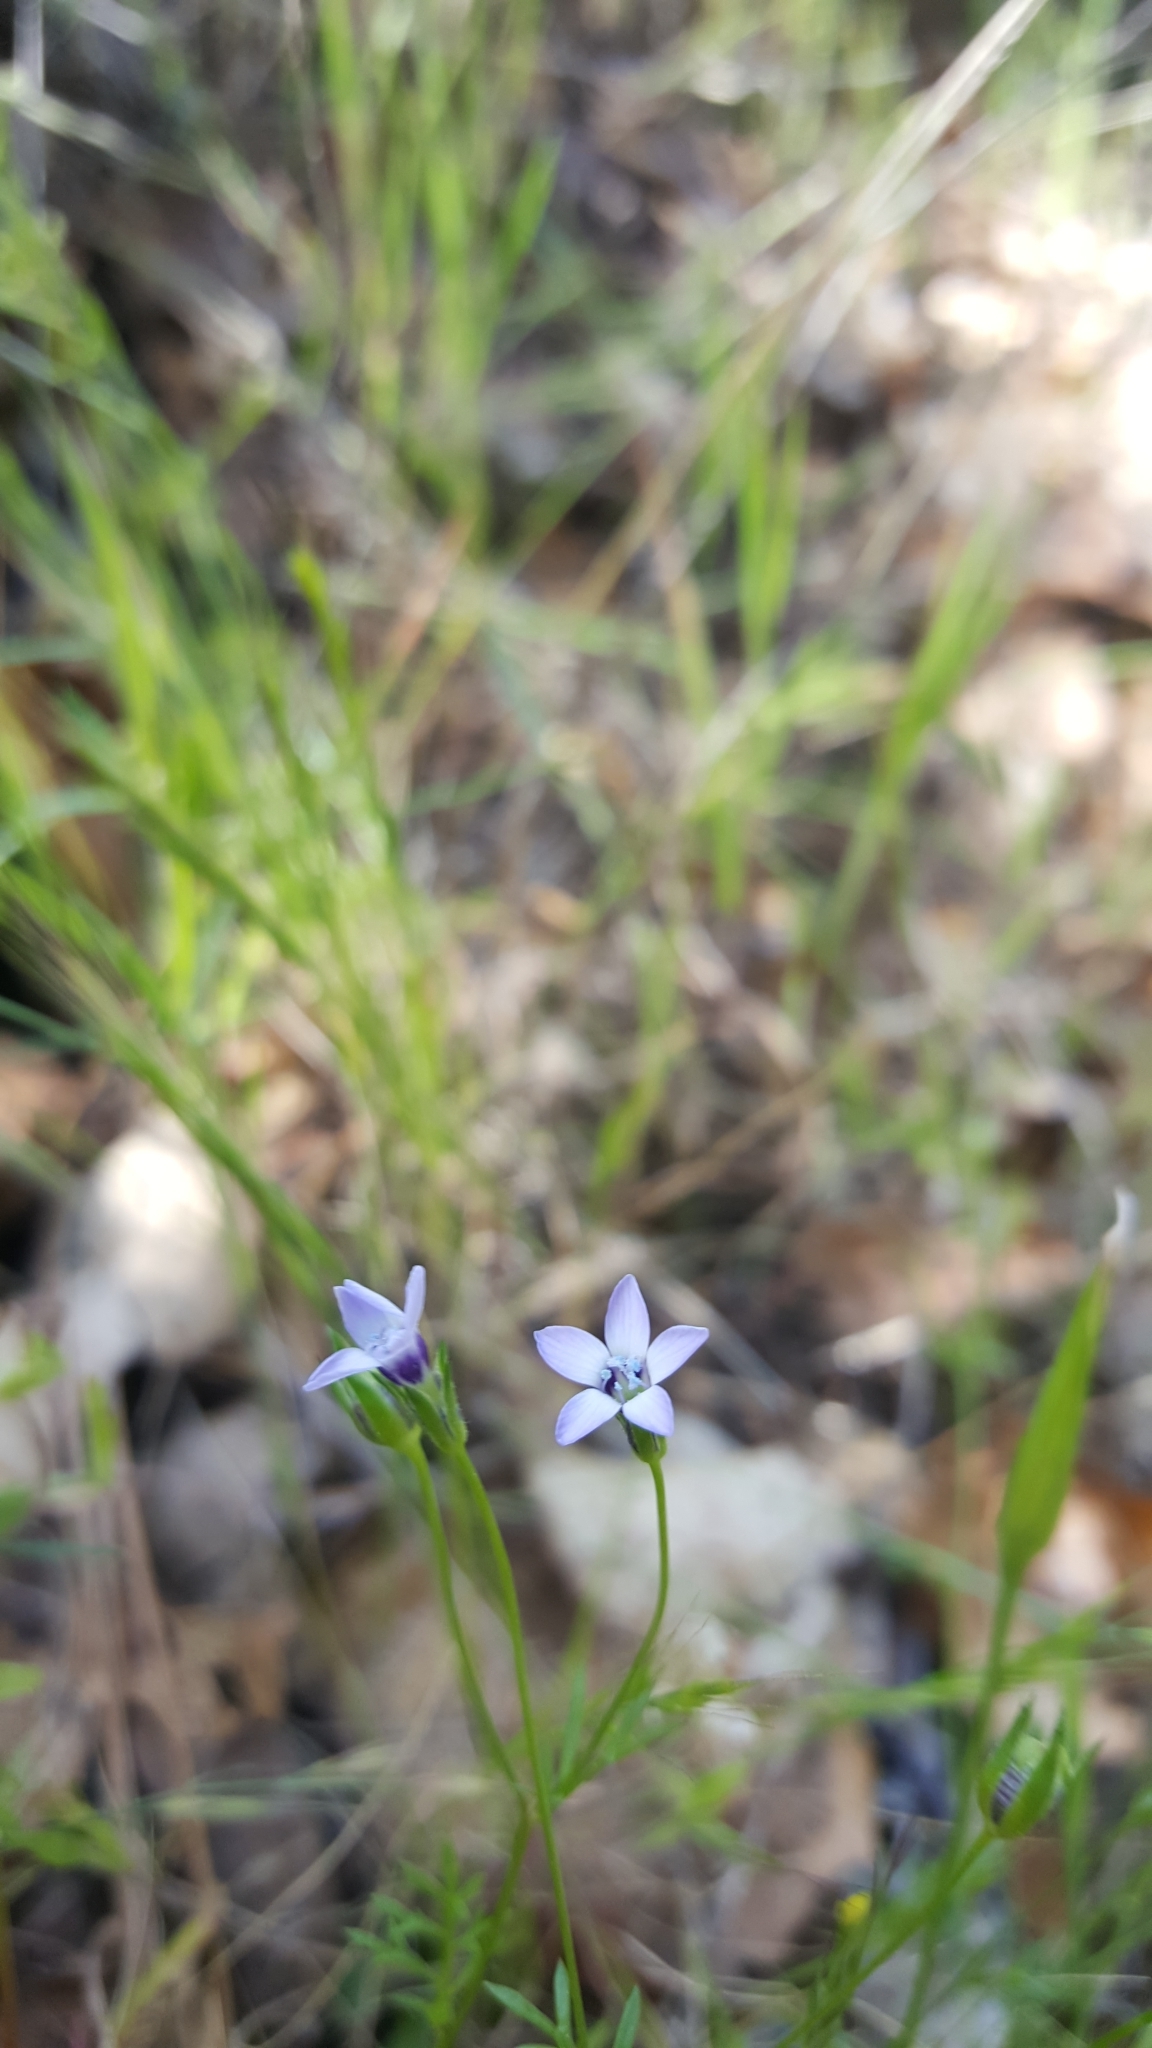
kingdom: Plantae
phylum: Tracheophyta
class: Magnoliopsida
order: Ericales
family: Polemoniaceae
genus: Gilia
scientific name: Gilia clivorum
